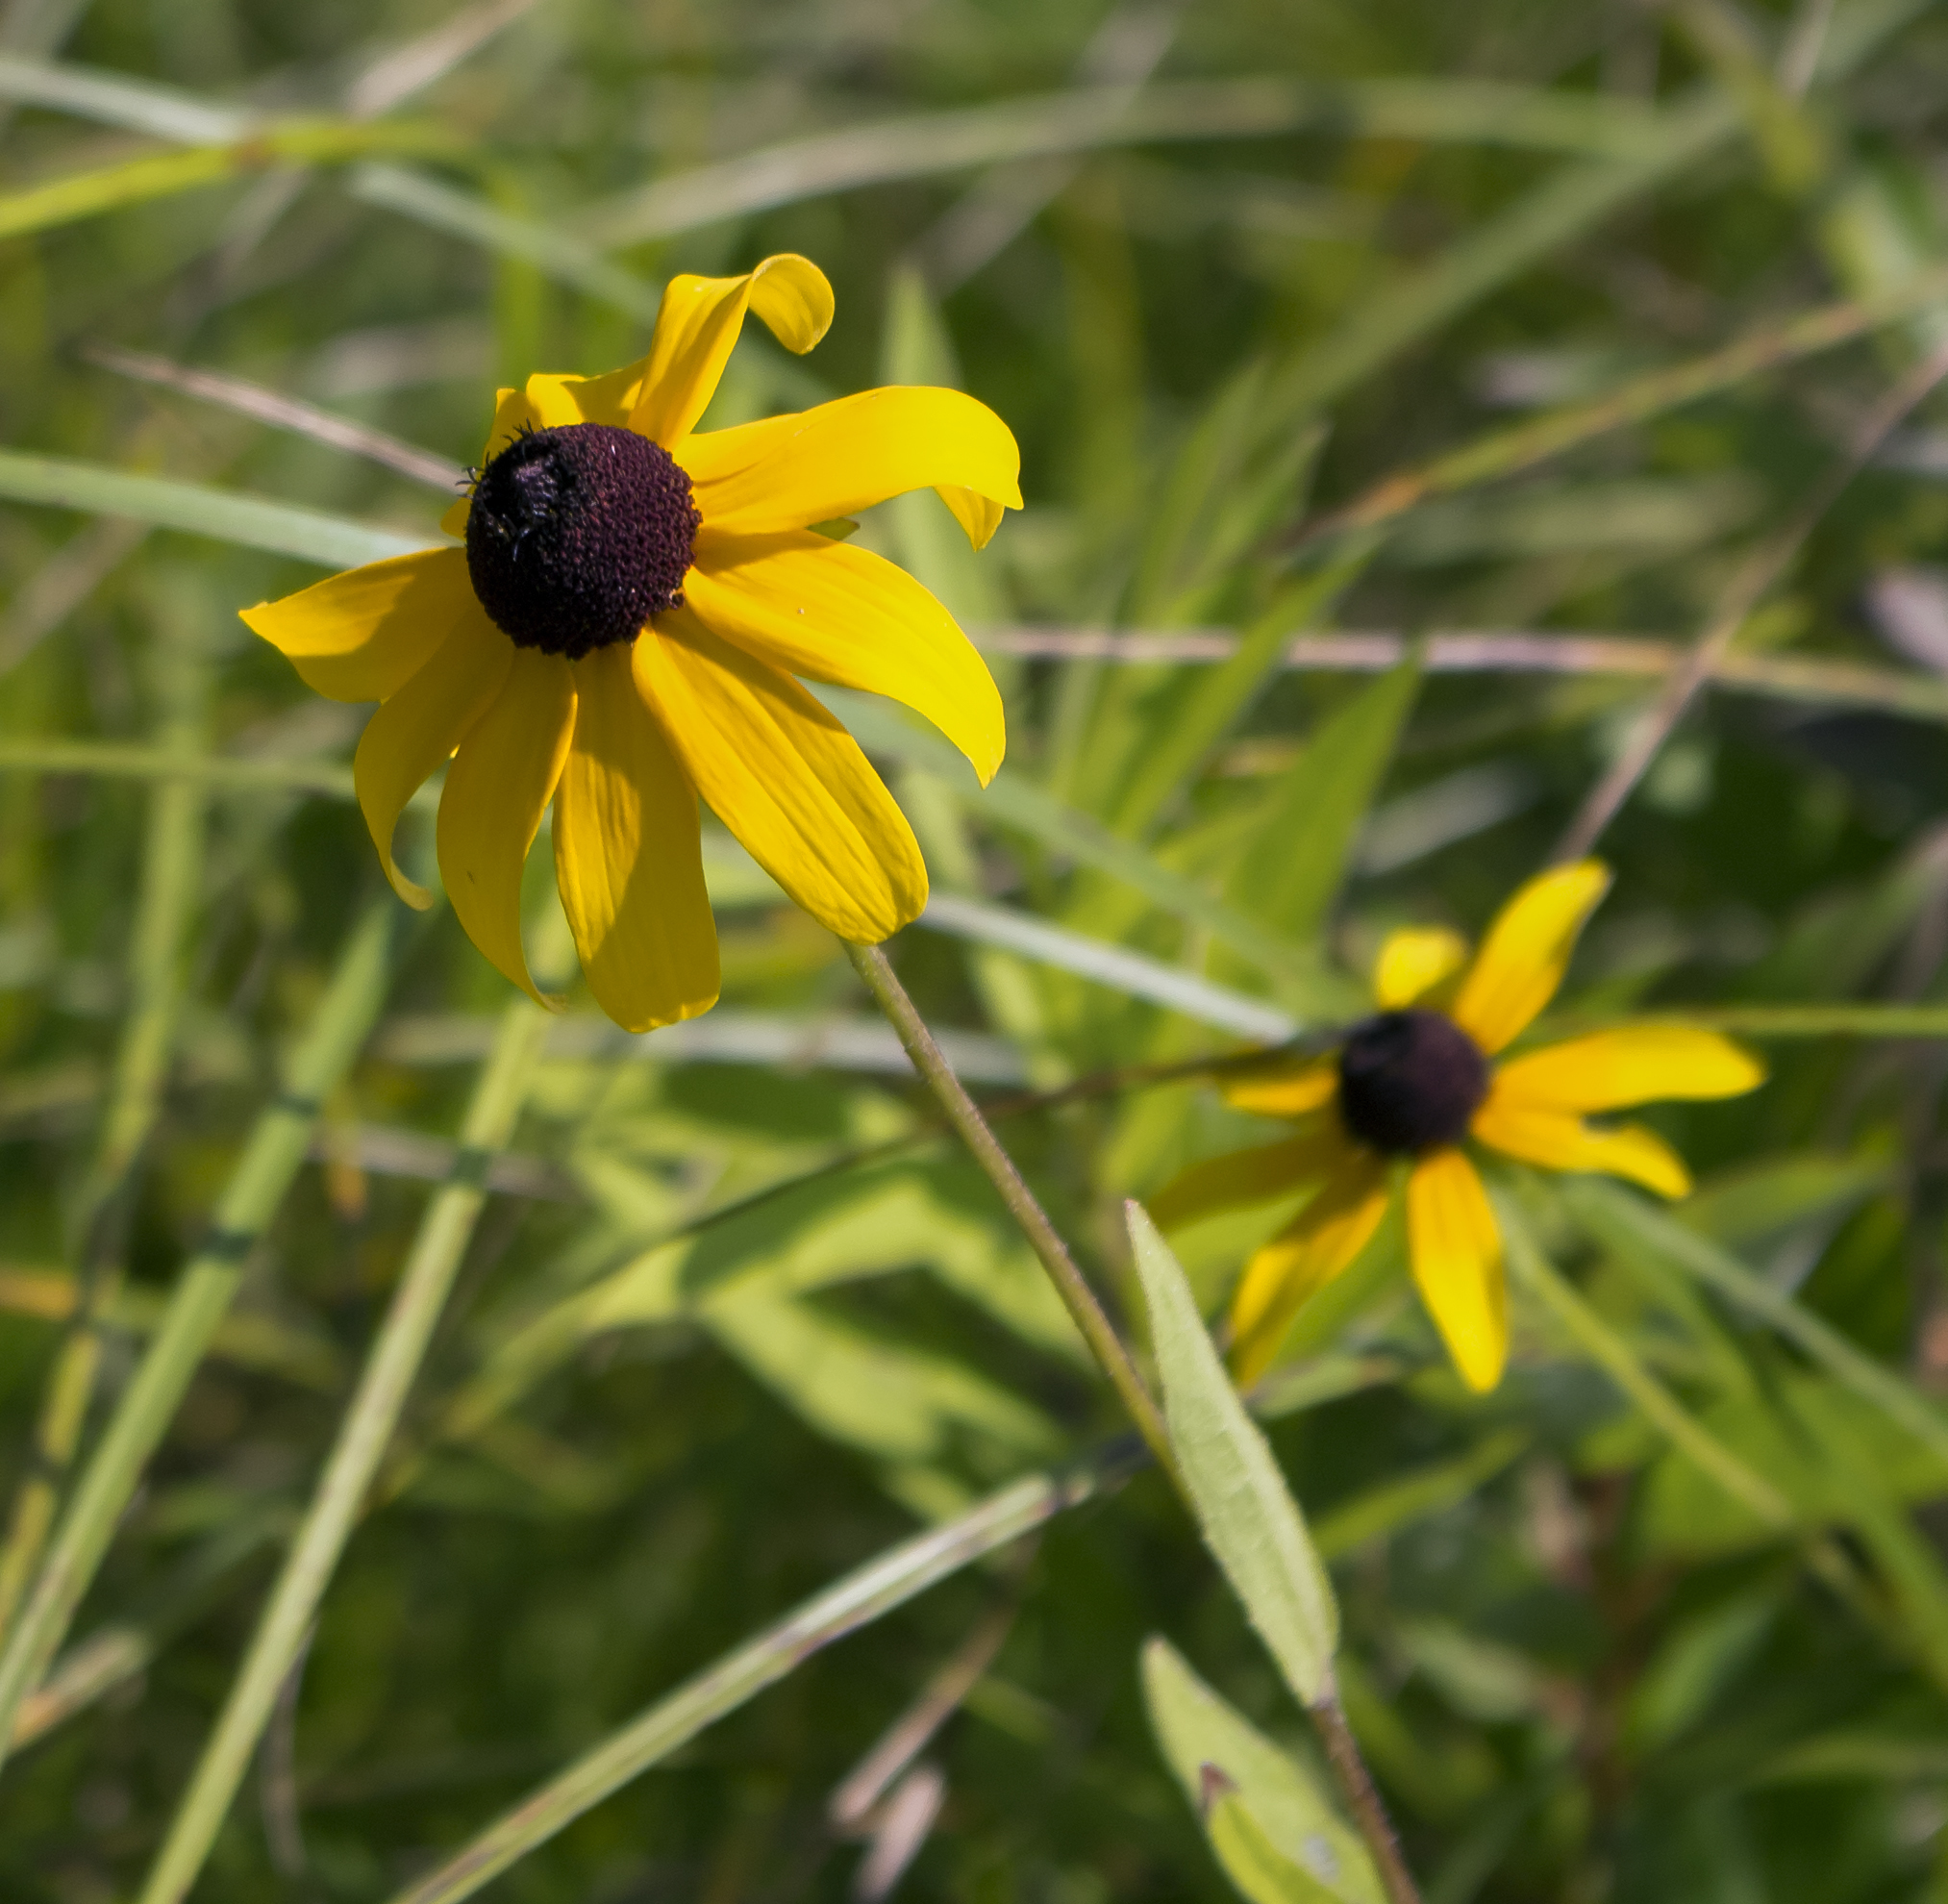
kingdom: Plantae
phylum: Tracheophyta
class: Magnoliopsida
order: Asterales
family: Asteraceae
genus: Rudbeckia
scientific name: Rudbeckia hirta
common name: Black-eyed-susan
